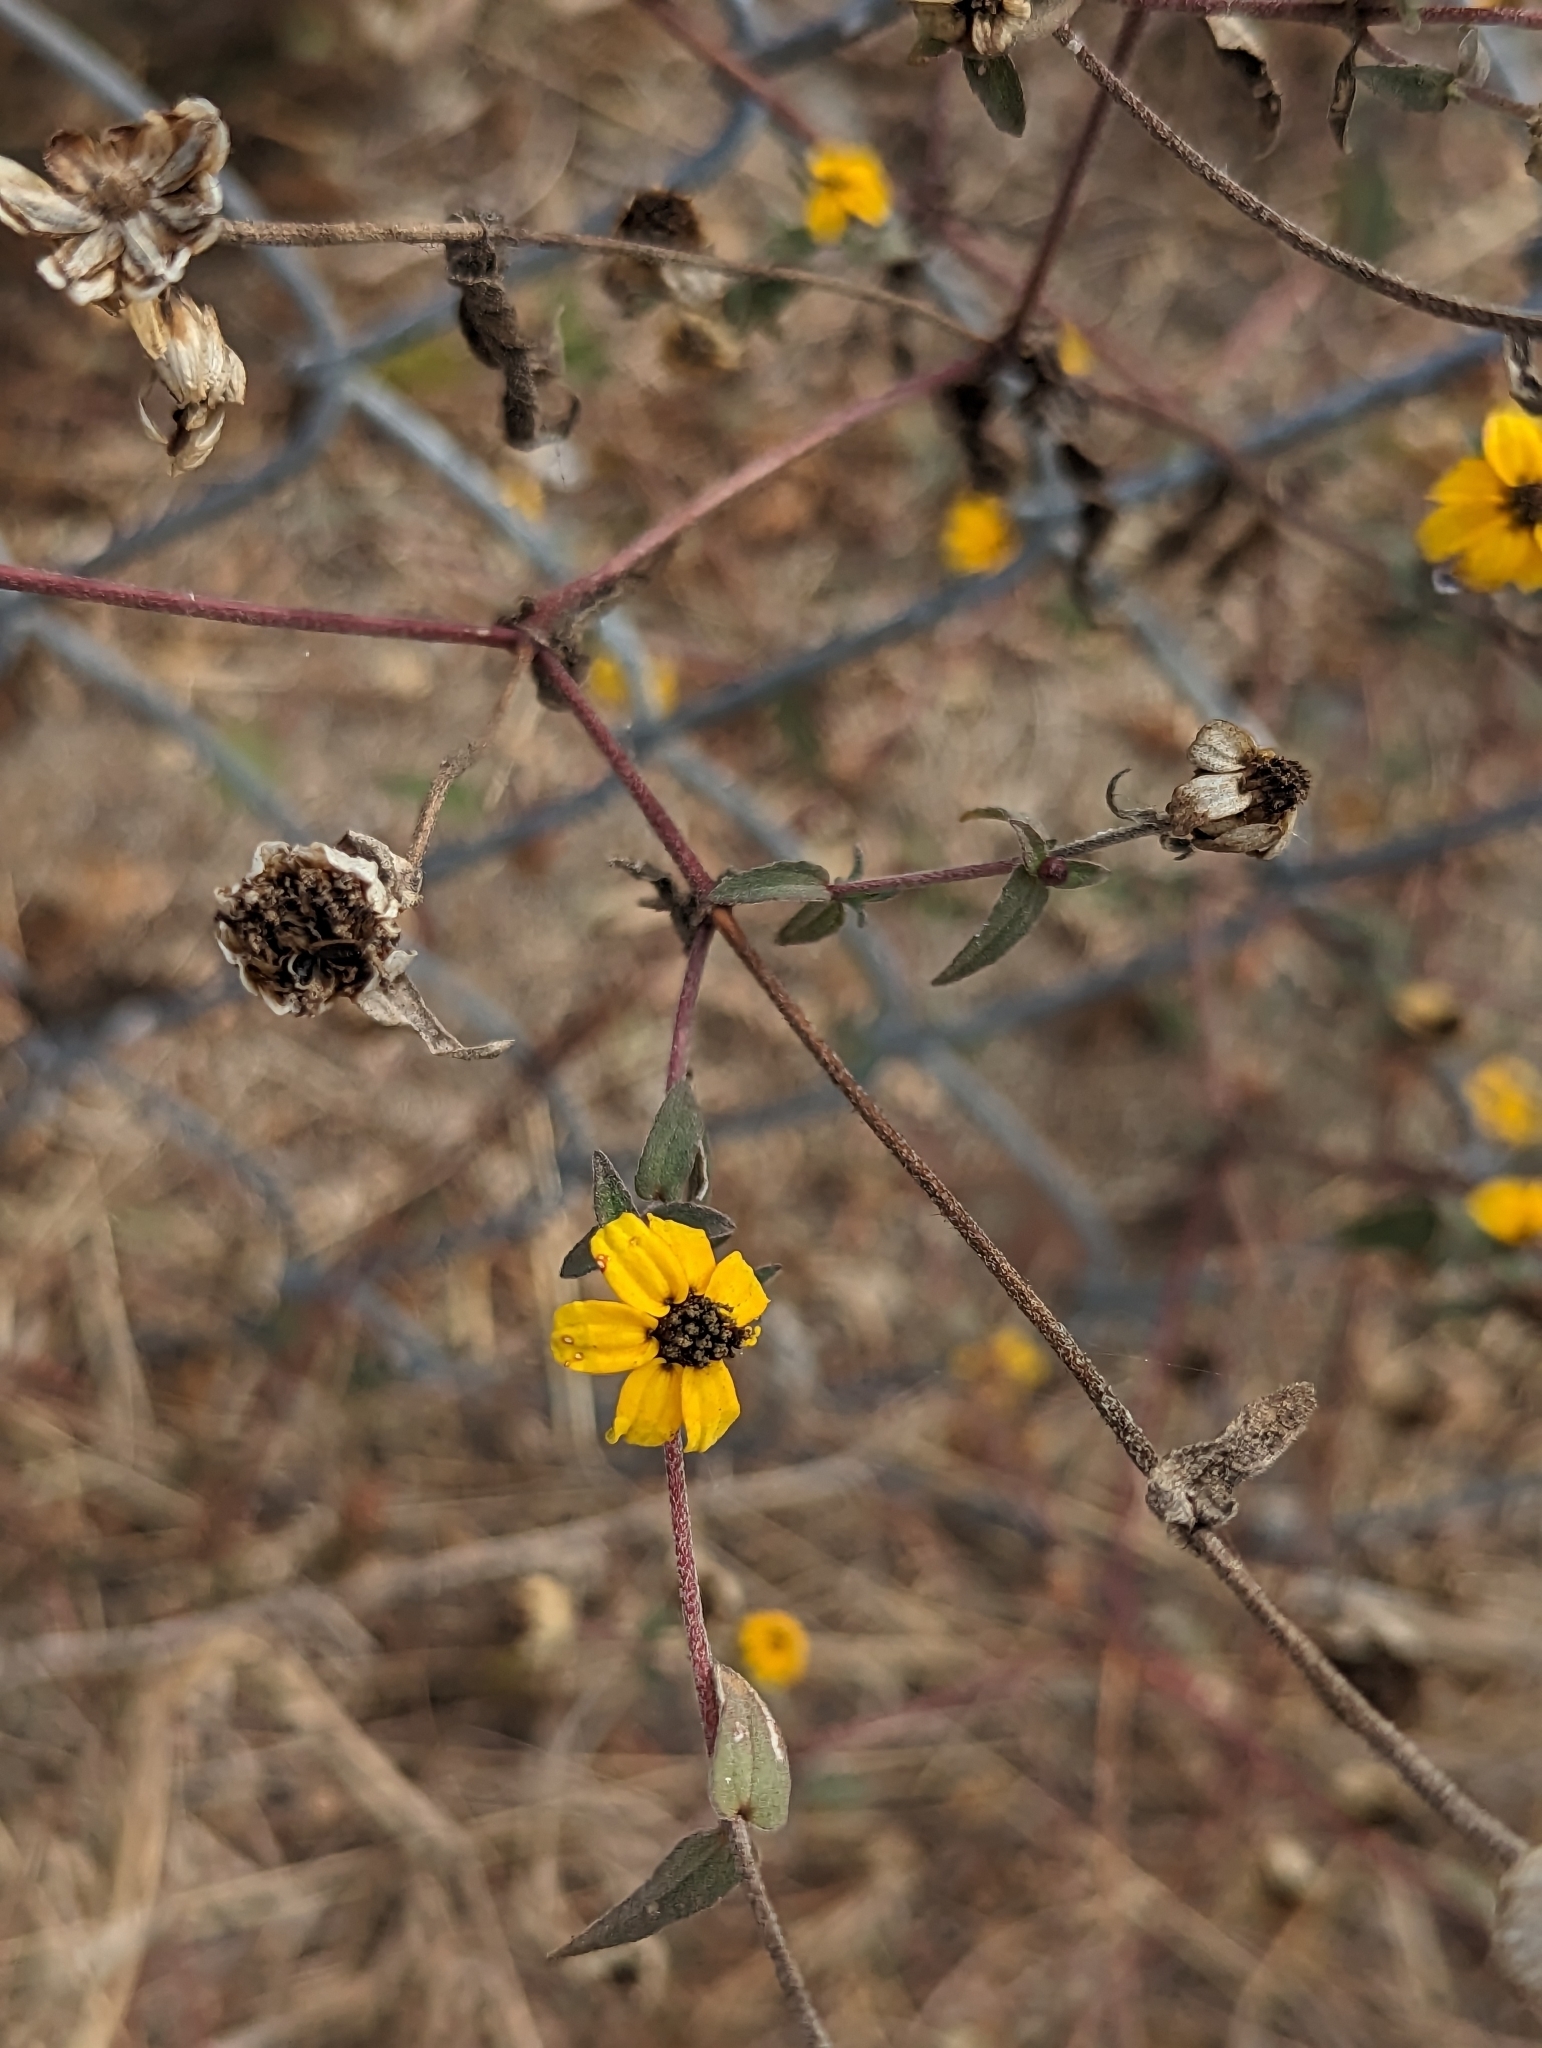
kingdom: Plantae
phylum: Tracheophyta
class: Magnoliopsida
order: Asterales
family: Asteraceae
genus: Zinnia
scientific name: Zinnia maritima
